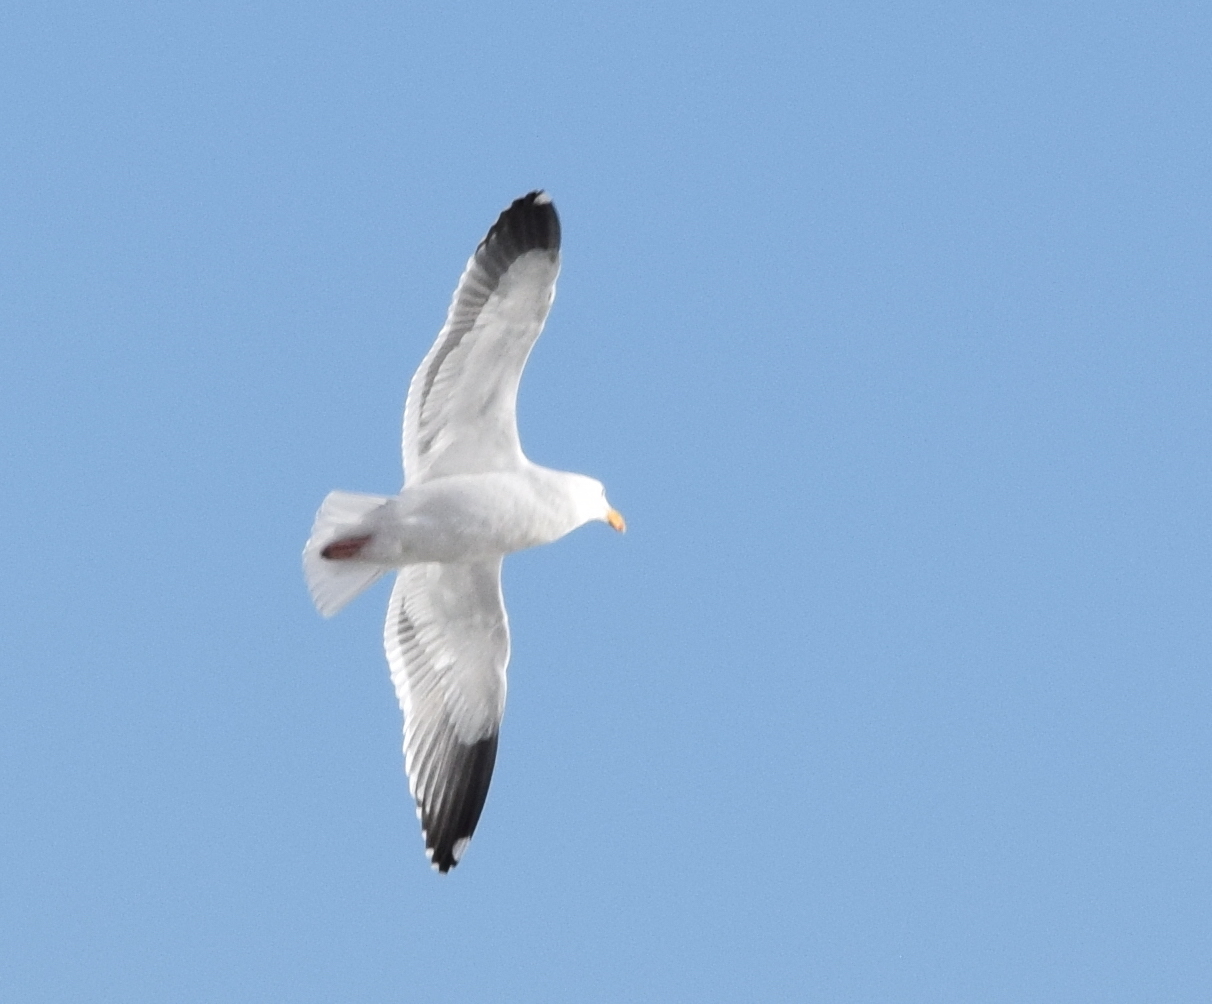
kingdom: Animalia
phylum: Chordata
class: Aves
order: Charadriiformes
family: Laridae
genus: Larus
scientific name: Larus occidentalis
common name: Western gull
